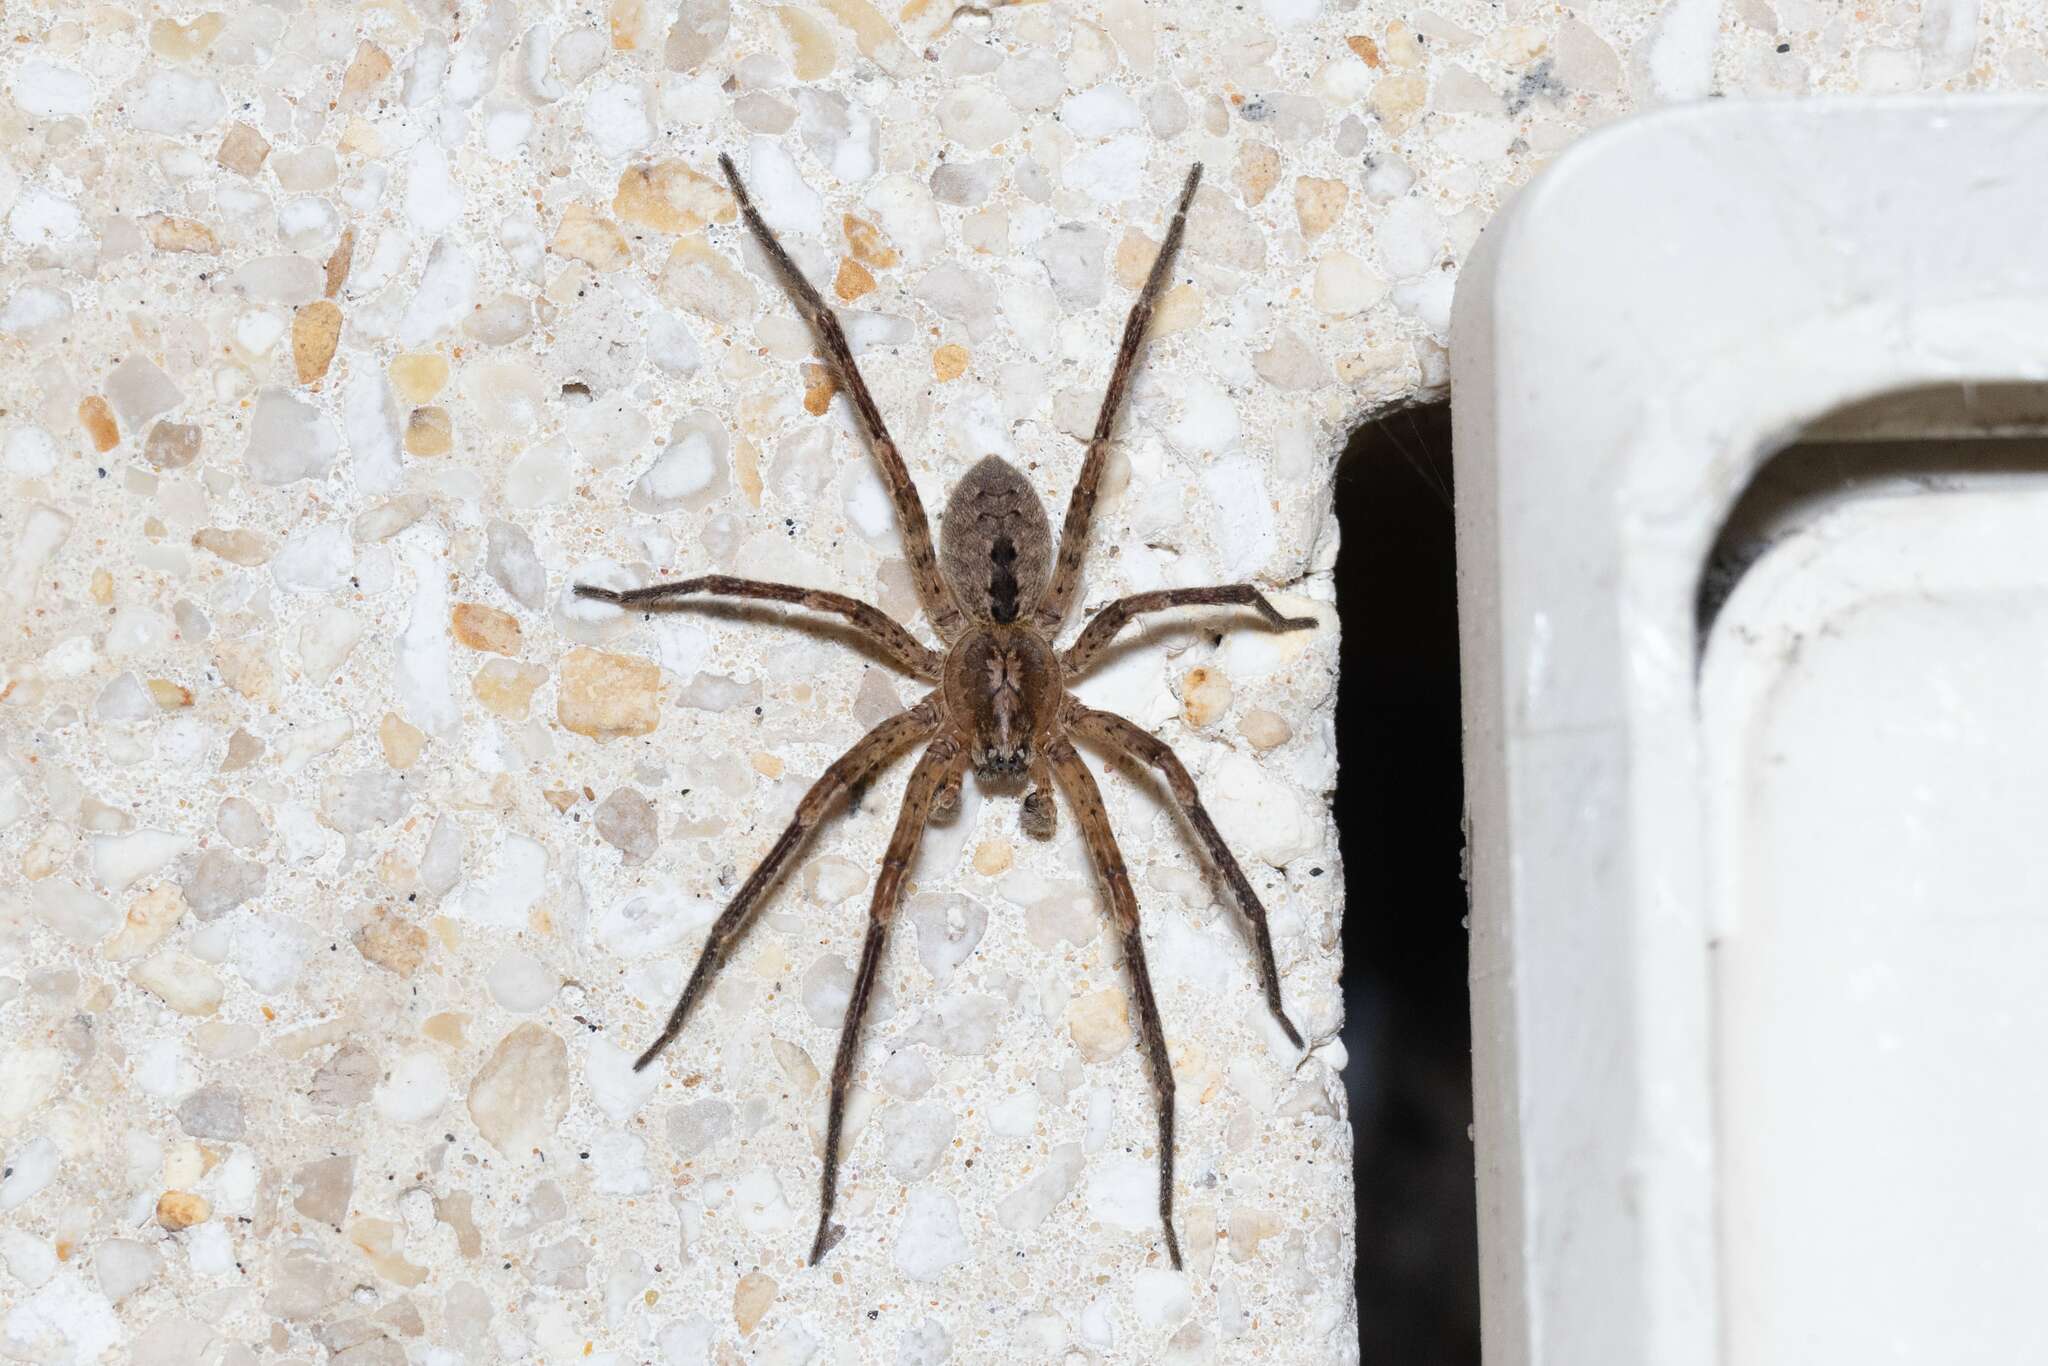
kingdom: Animalia
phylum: Arthropoda
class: Arachnida
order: Araneae
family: Zoropsidae
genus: Zoropsis
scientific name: Zoropsis spinimana
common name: Zoropsid spider
